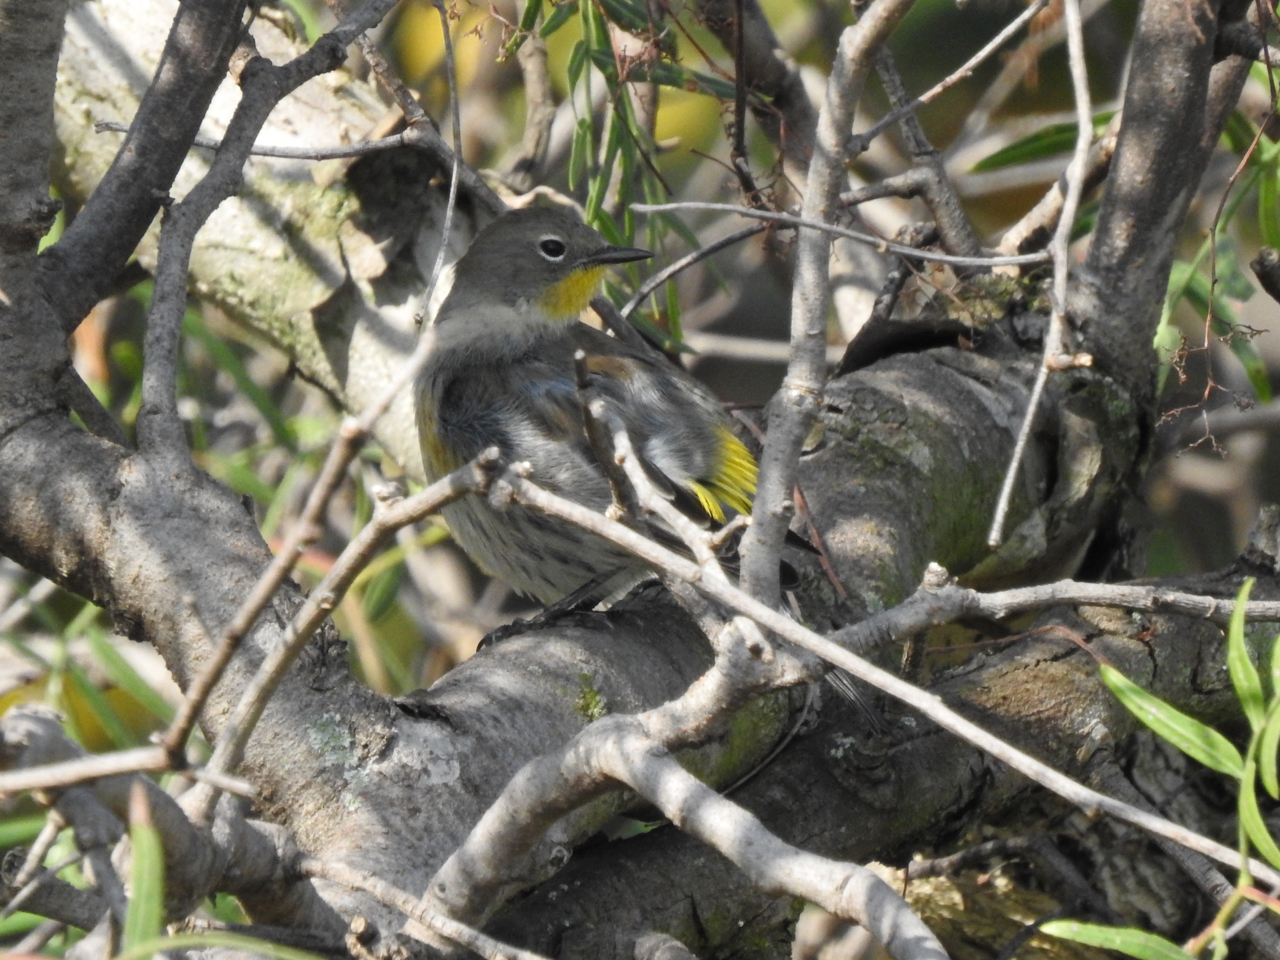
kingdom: Animalia
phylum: Chordata
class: Aves
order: Passeriformes
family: Parulidae
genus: Setophaga
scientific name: Setophaga auduboni
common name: Audubon's warbler
